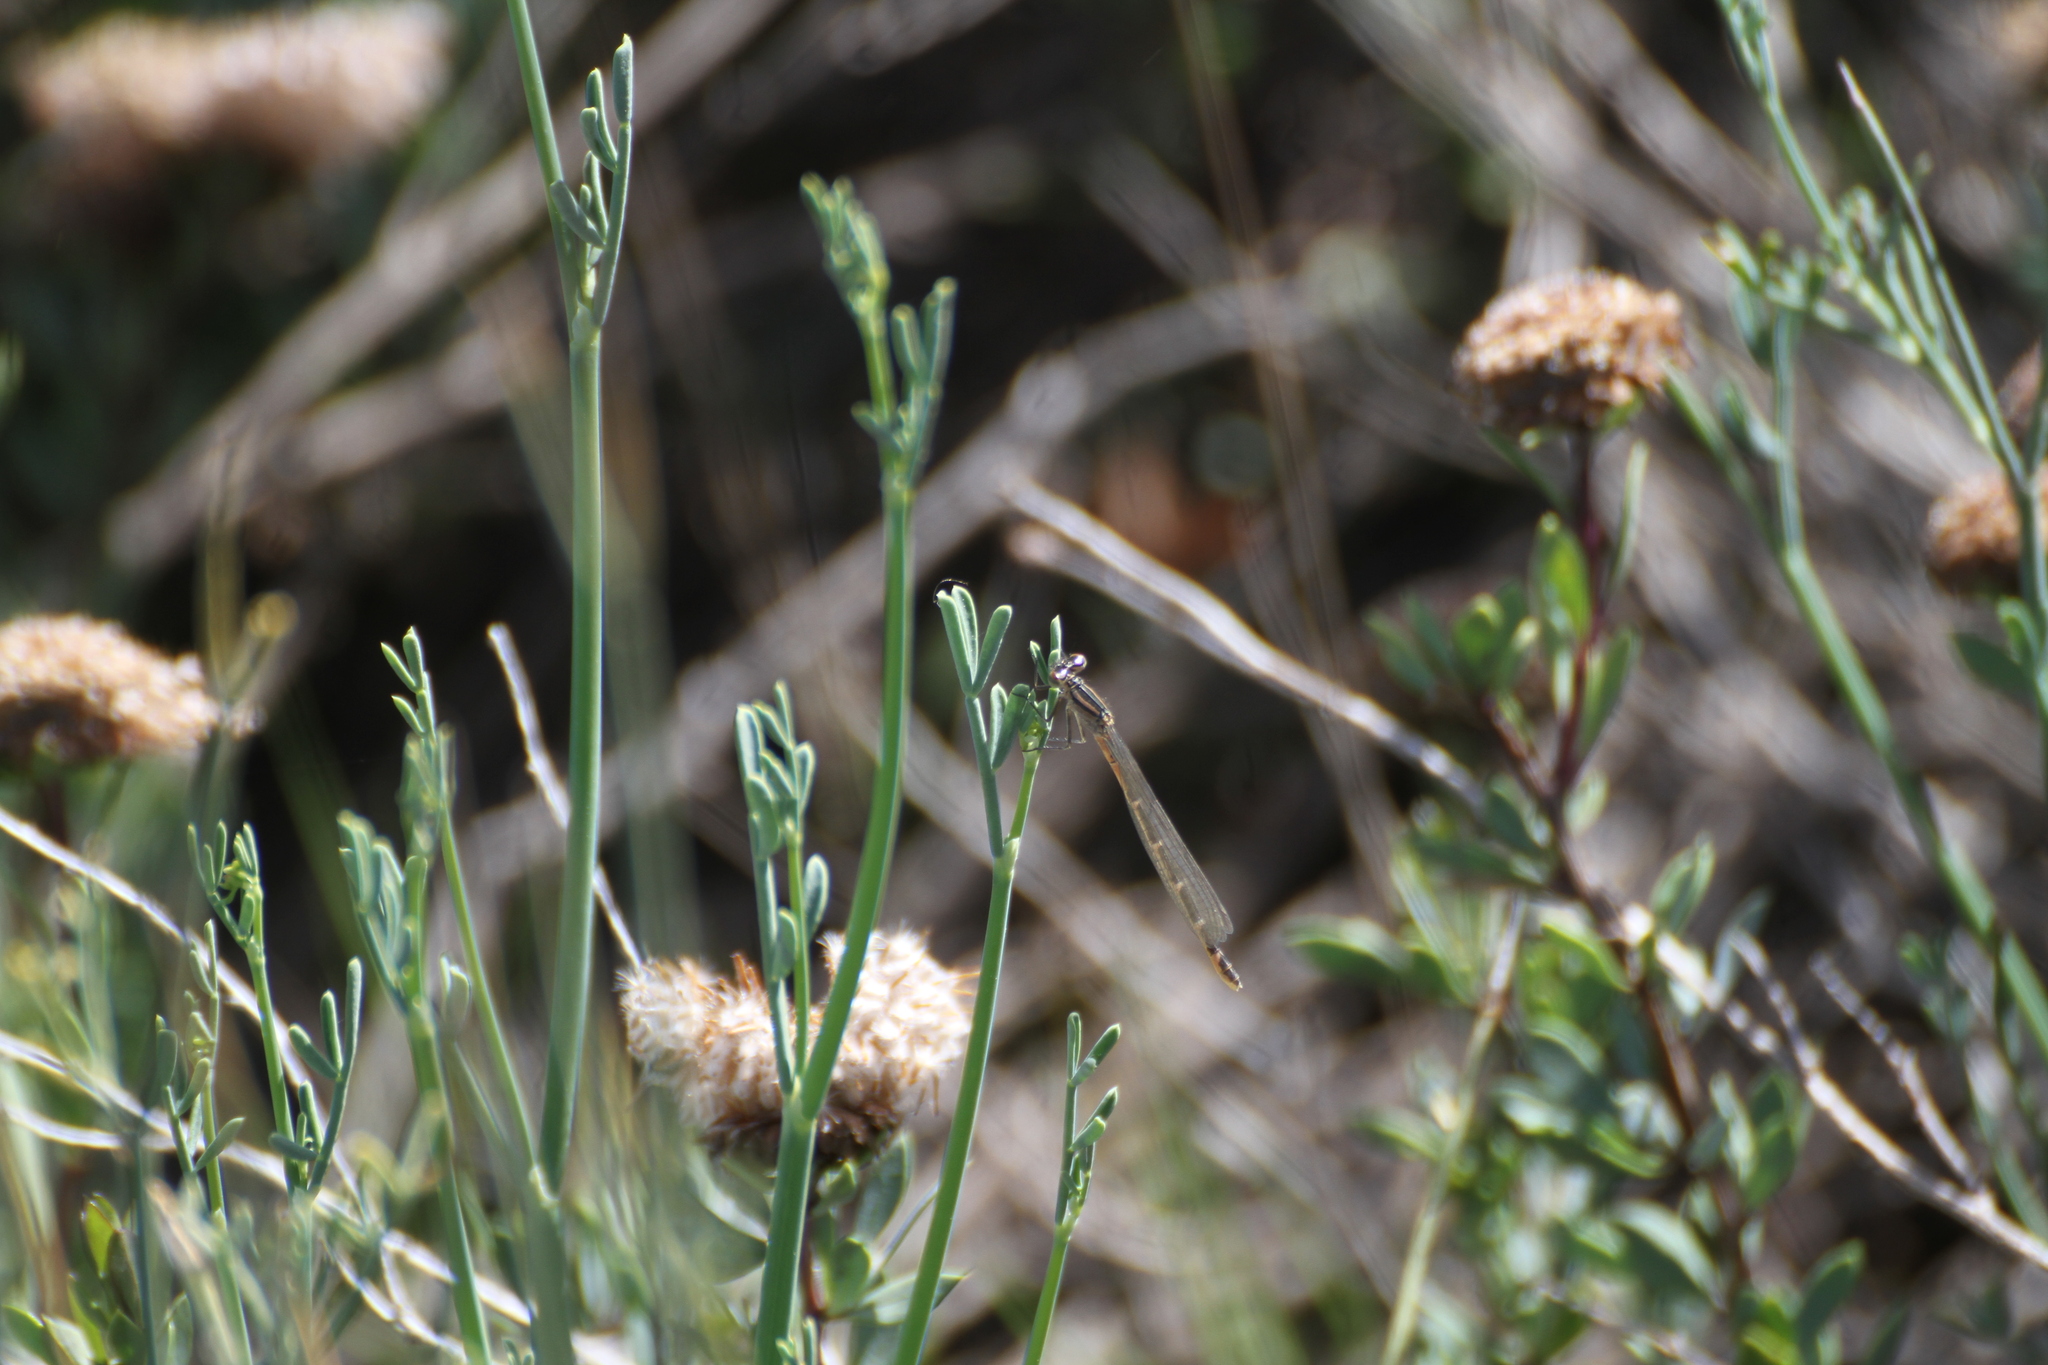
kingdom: Animalia
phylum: Arthropoda
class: Insecta
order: Odonata
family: Coenagrionidae
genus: Enallagma
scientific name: Enallagma cyathigerum
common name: Common blue damselfly
